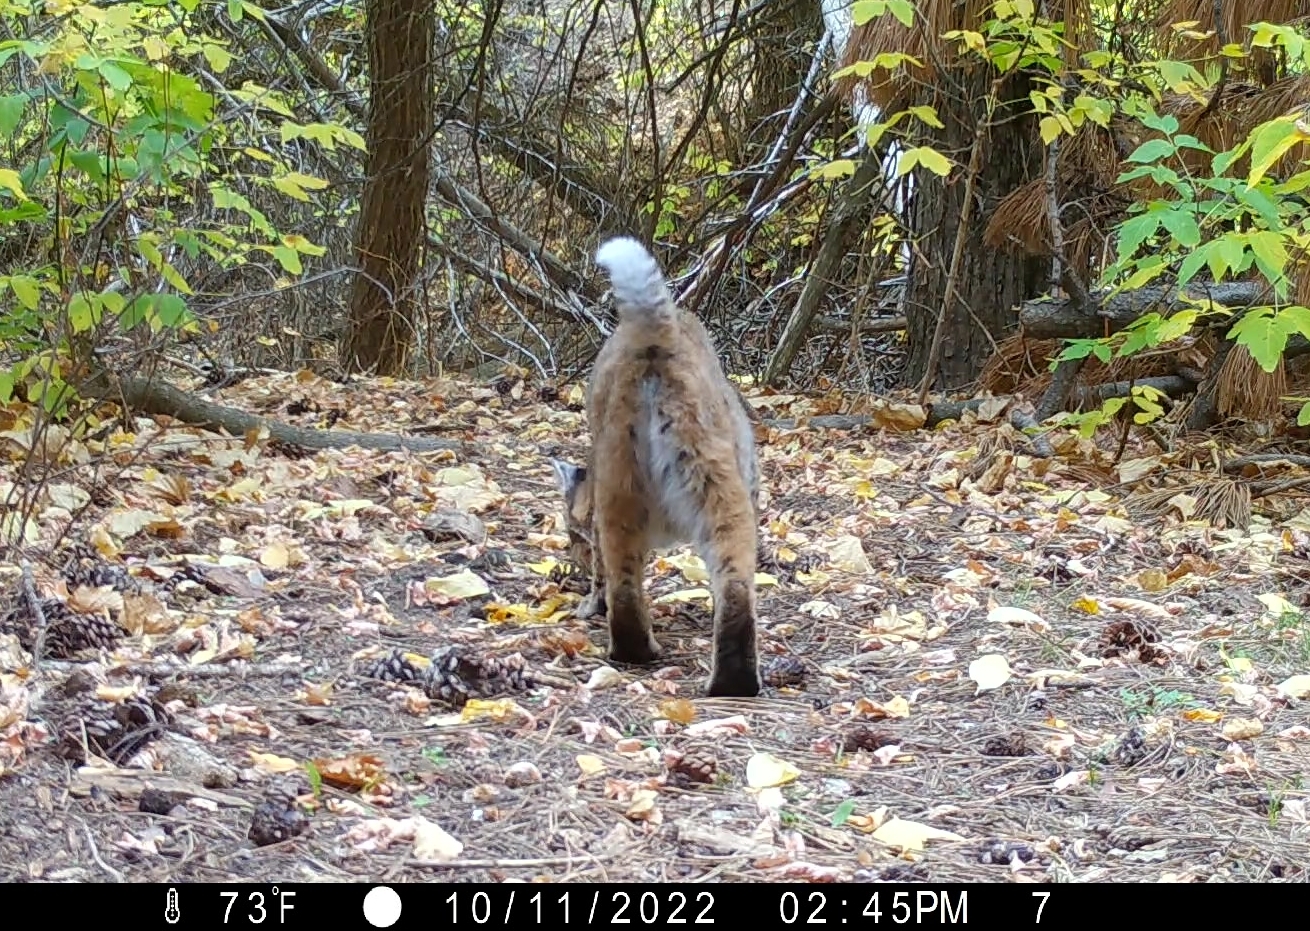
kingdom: Animalia
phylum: Chordata
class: Mammalia
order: Carnivora
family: Felidae
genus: Lynx
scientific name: Lynx rufus
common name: Bobcat
